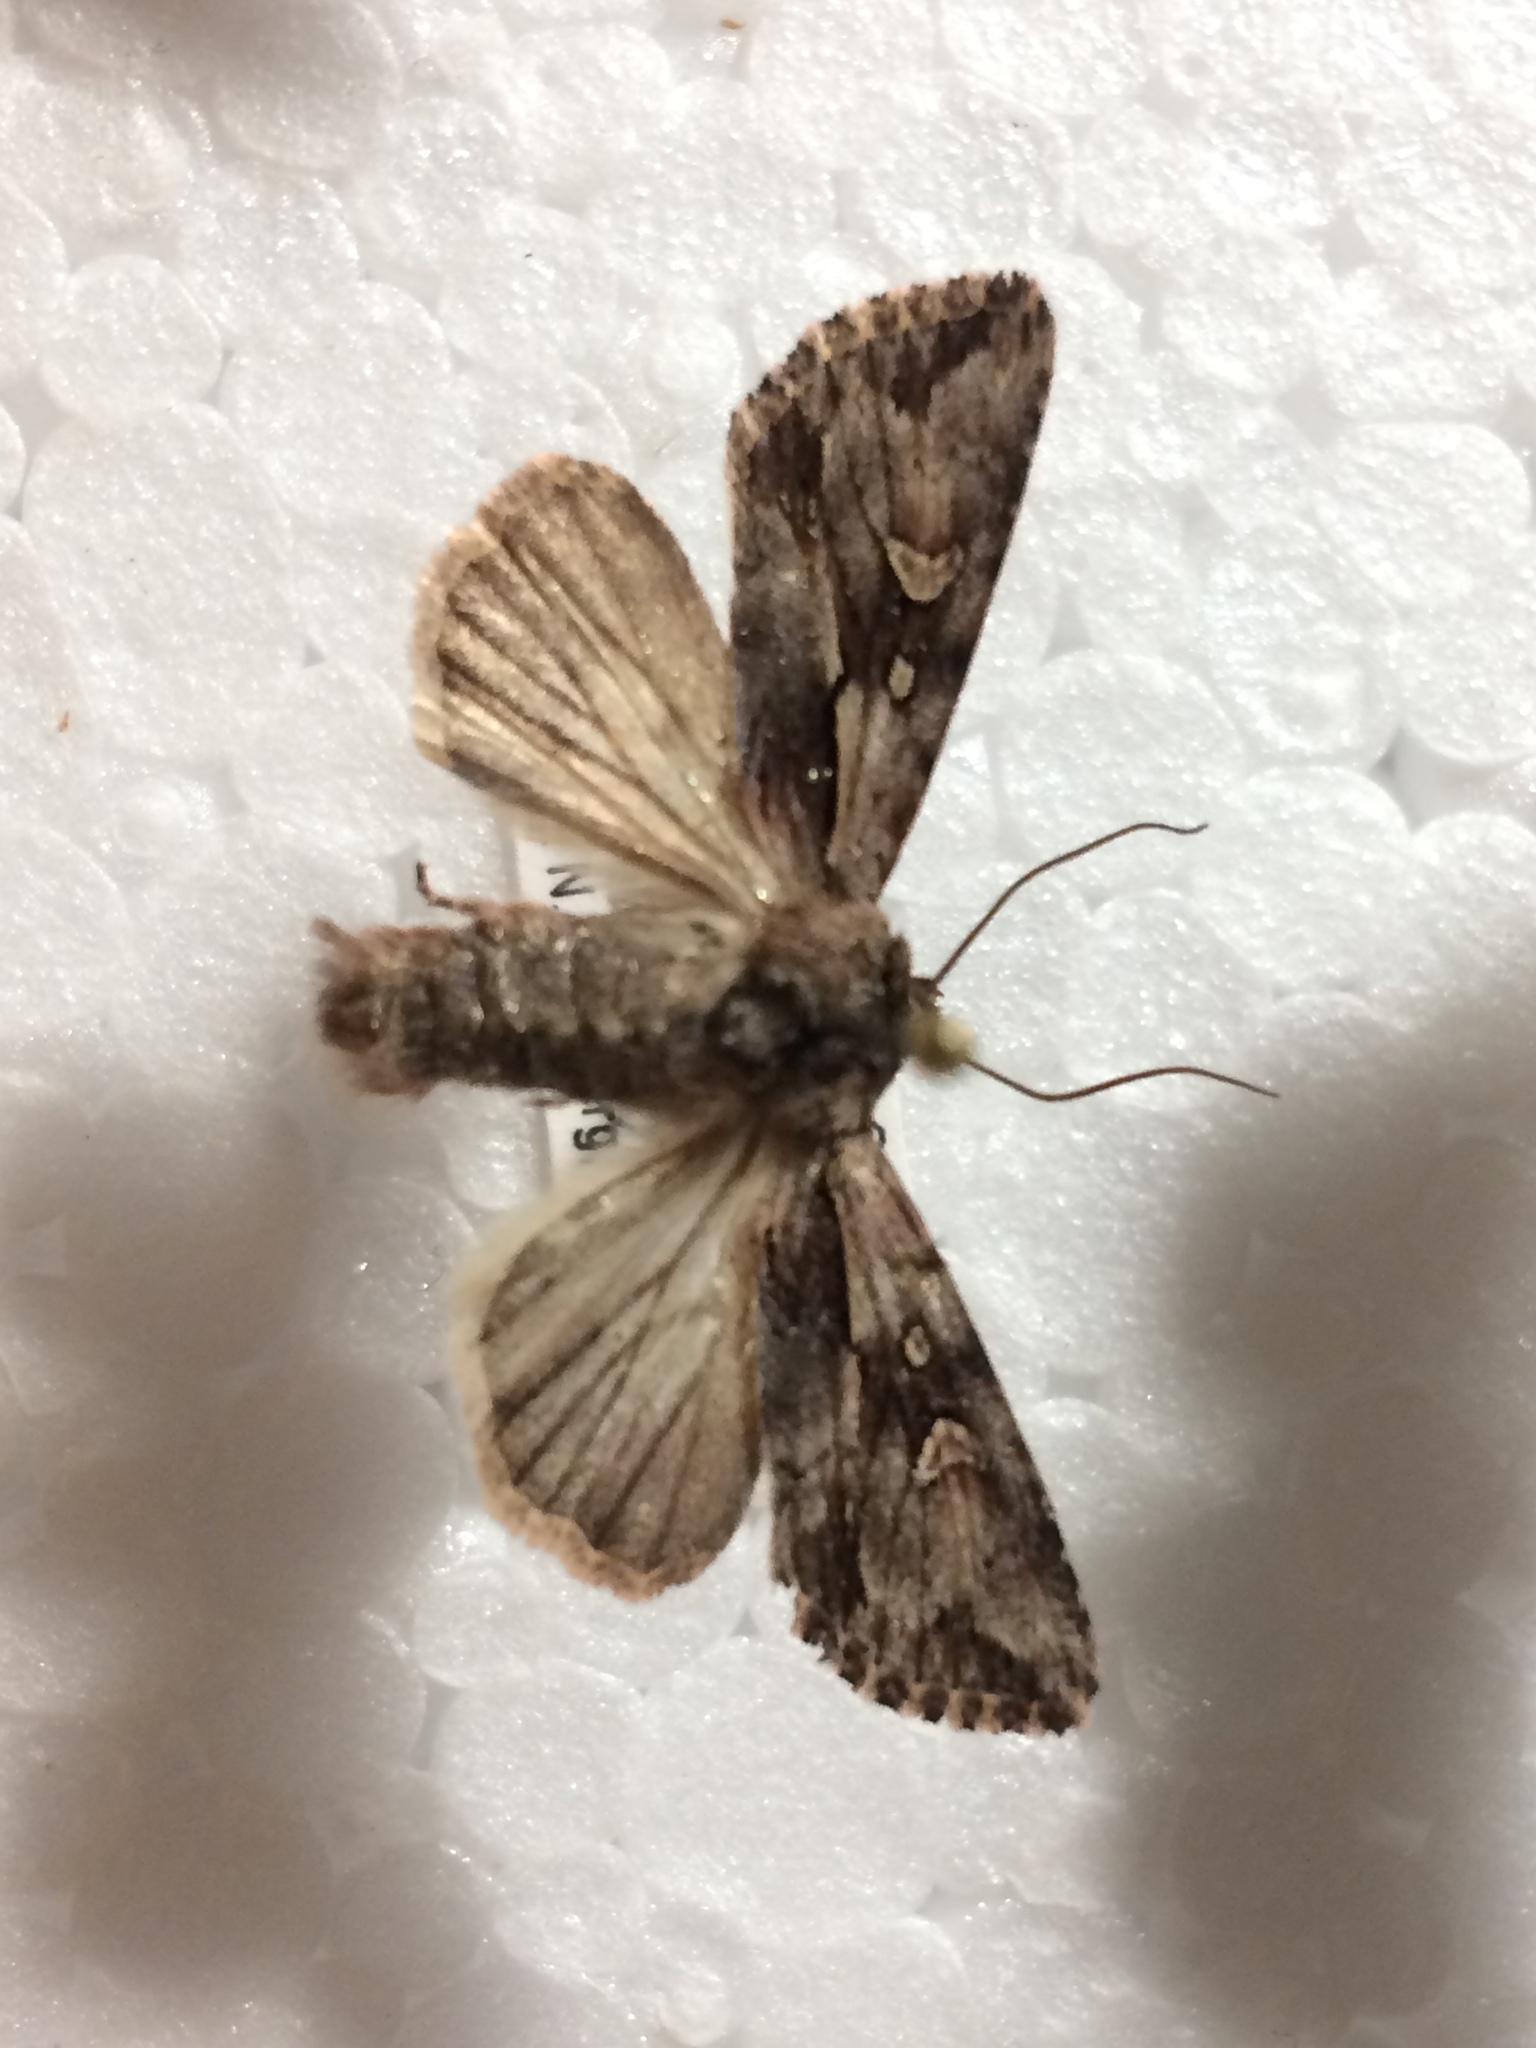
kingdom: Animalia
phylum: Arthropoda
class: Insecta
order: Lepidoptera
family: Noctuidae
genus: Chloantha
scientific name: Chloantha hyperici
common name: Pale-shouldered cloud
